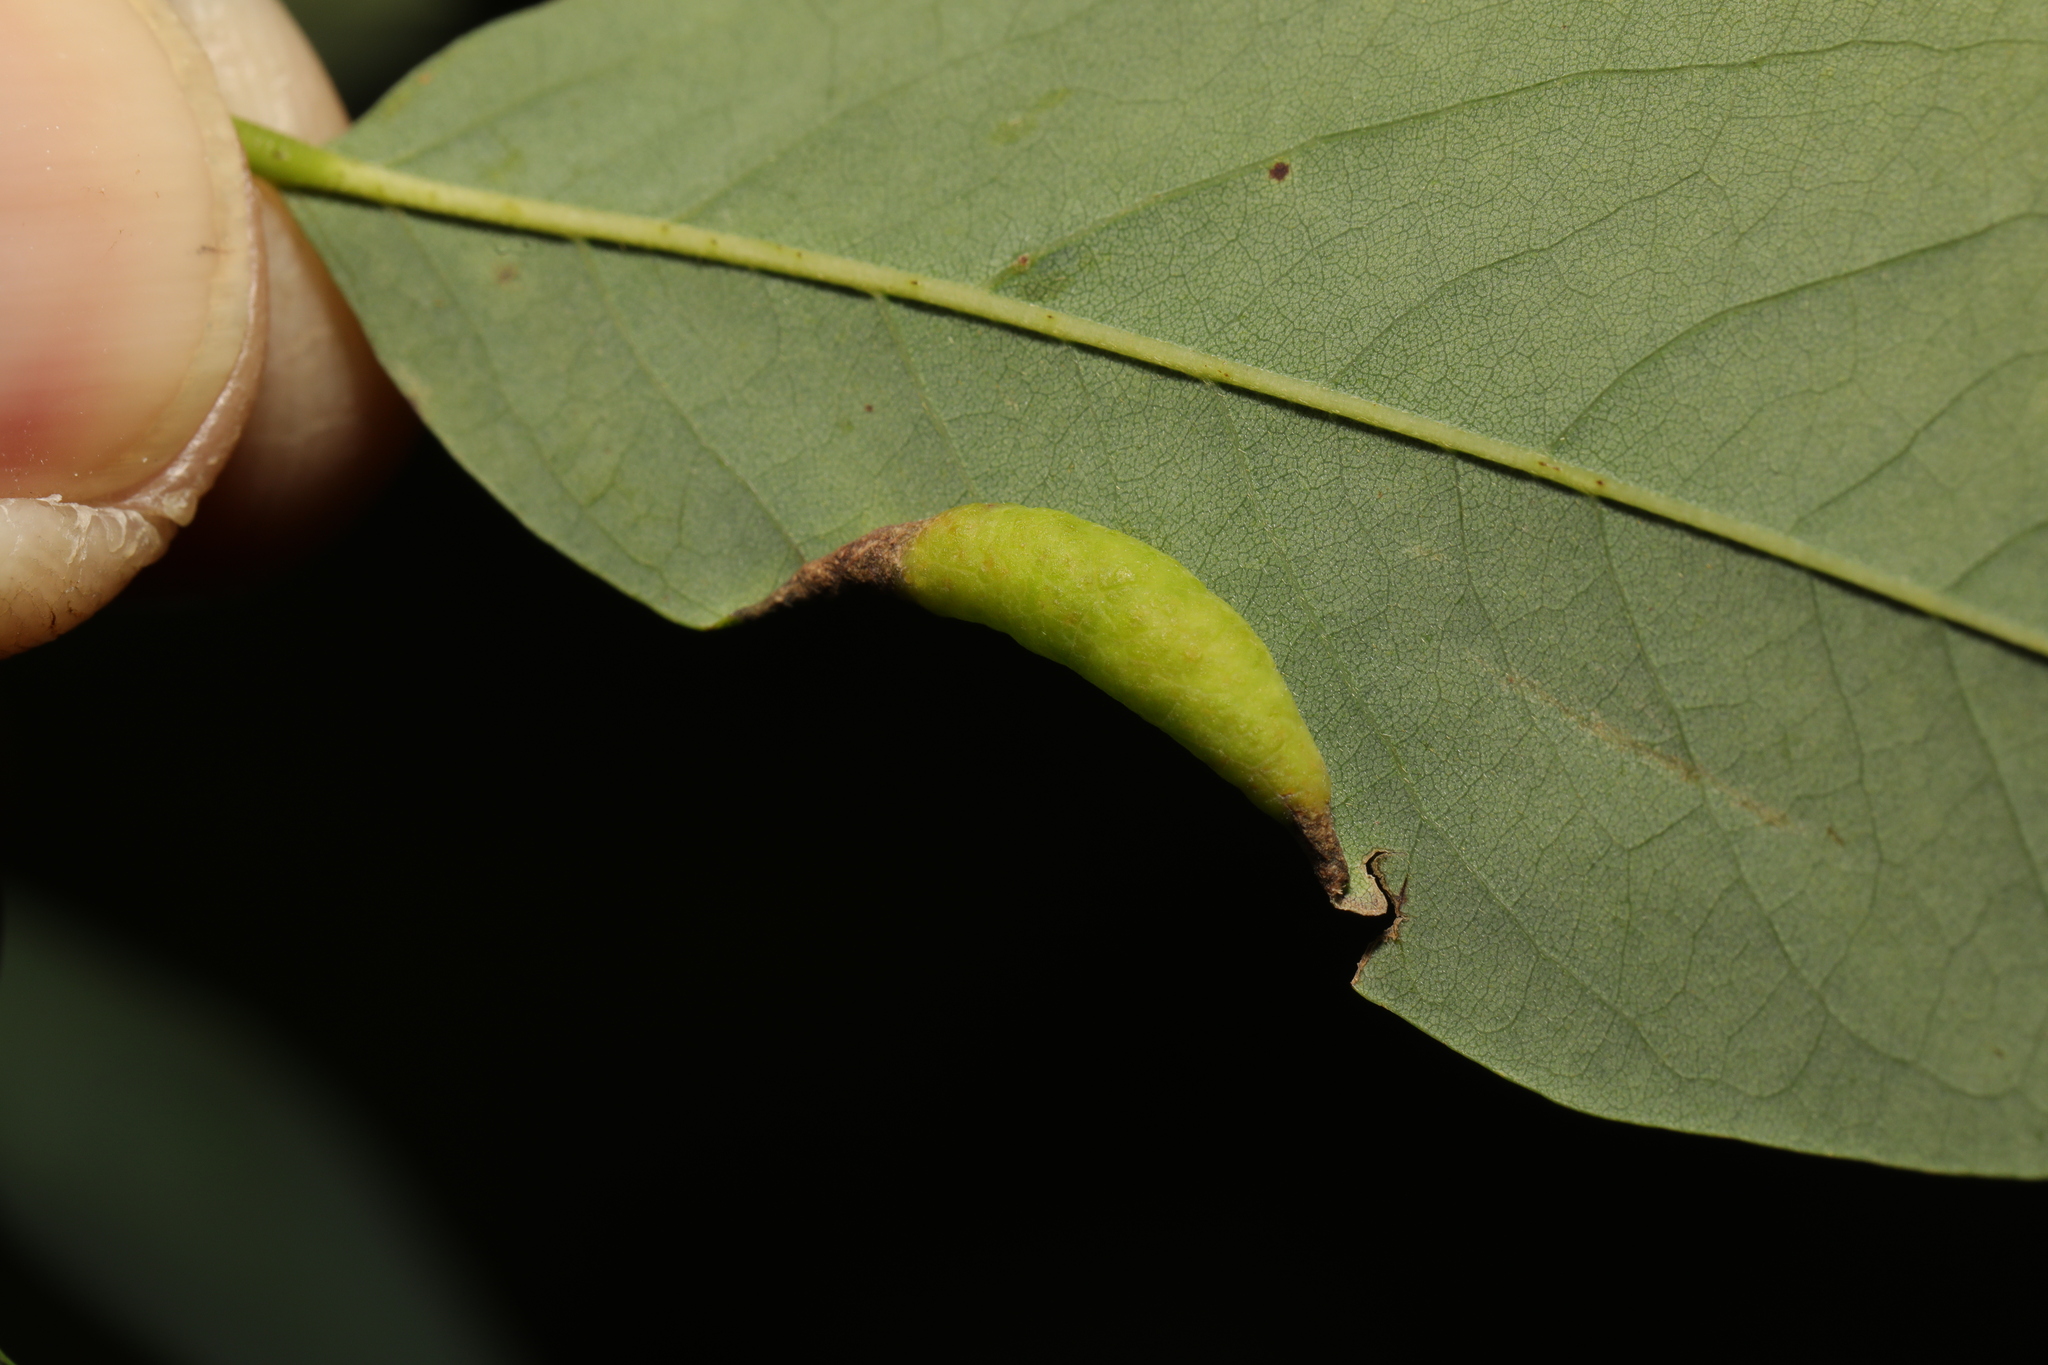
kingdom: Animalia
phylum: Arthropoda
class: Insecta
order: Diptera
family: Cecidomyiidae
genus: Obolodiplosis
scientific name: Obolodiplosis robiniae
